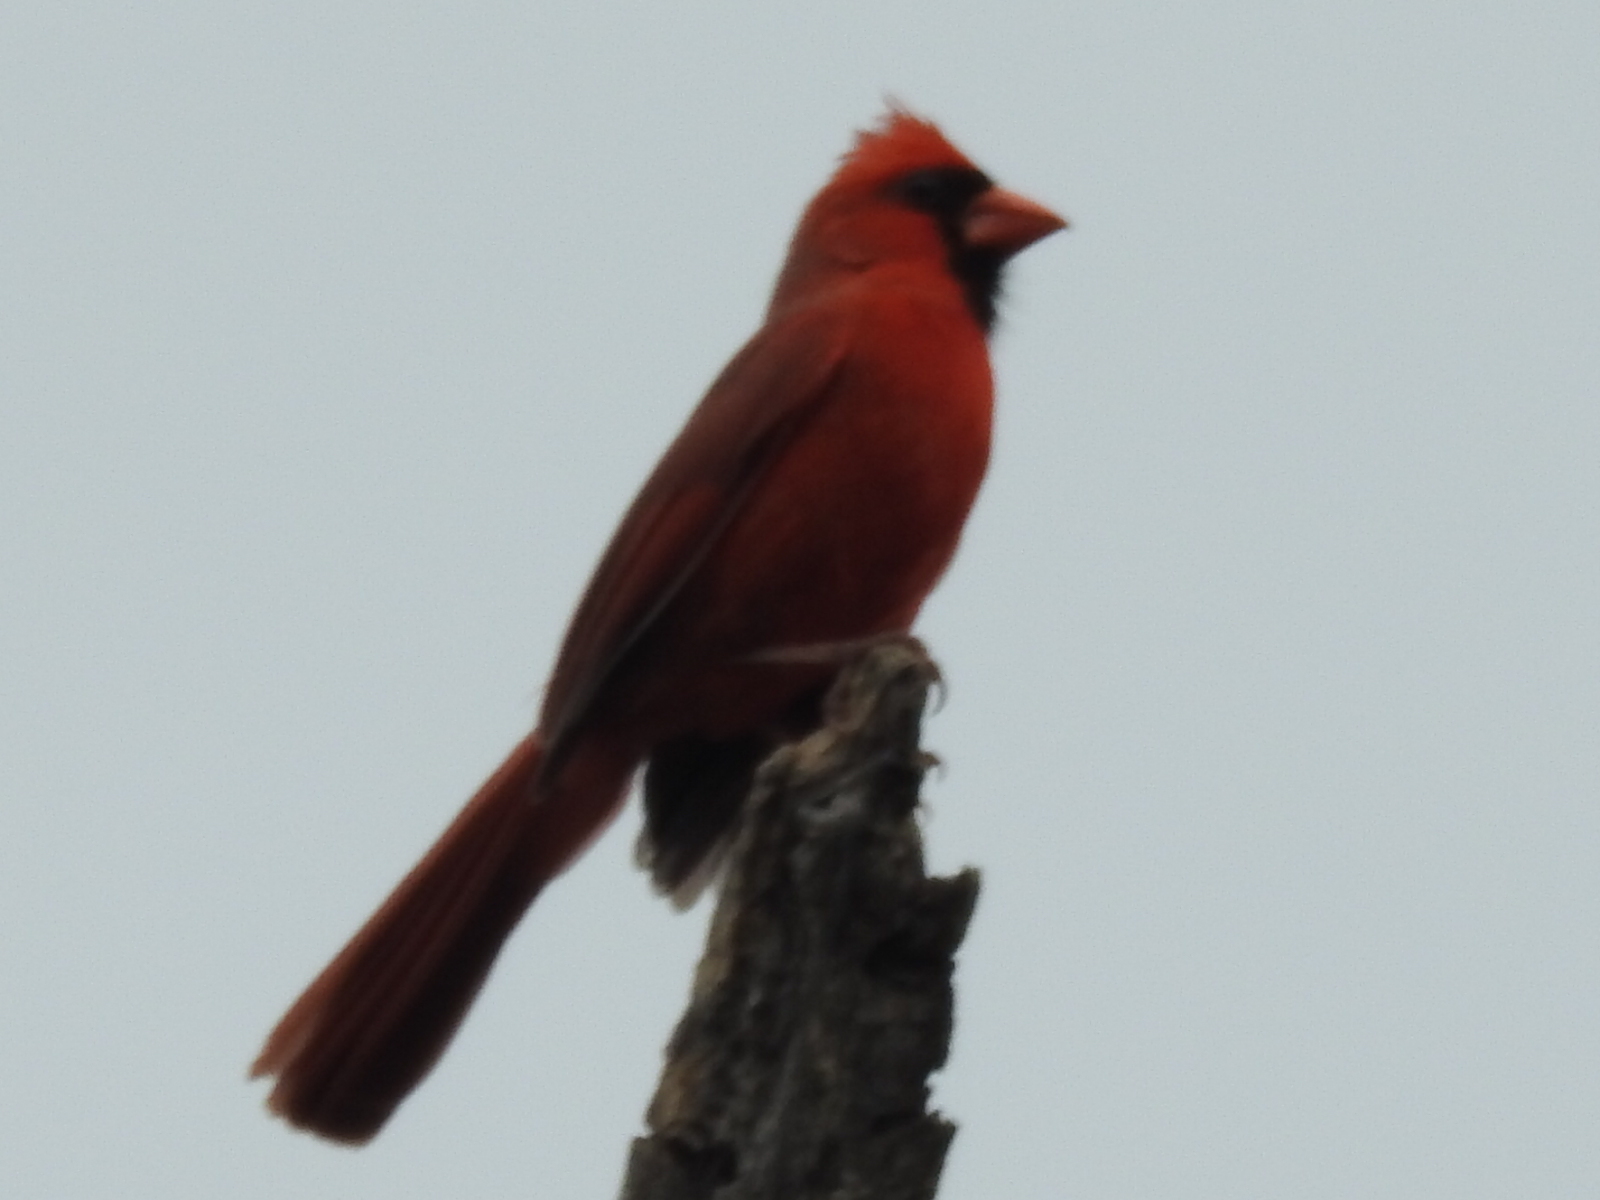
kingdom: Animalia
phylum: Chordata
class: Aves
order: Passeriformes
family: Cardinalidae
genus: Cardinalis
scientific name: Cardinalis cardinalis
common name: Northern cardinal
